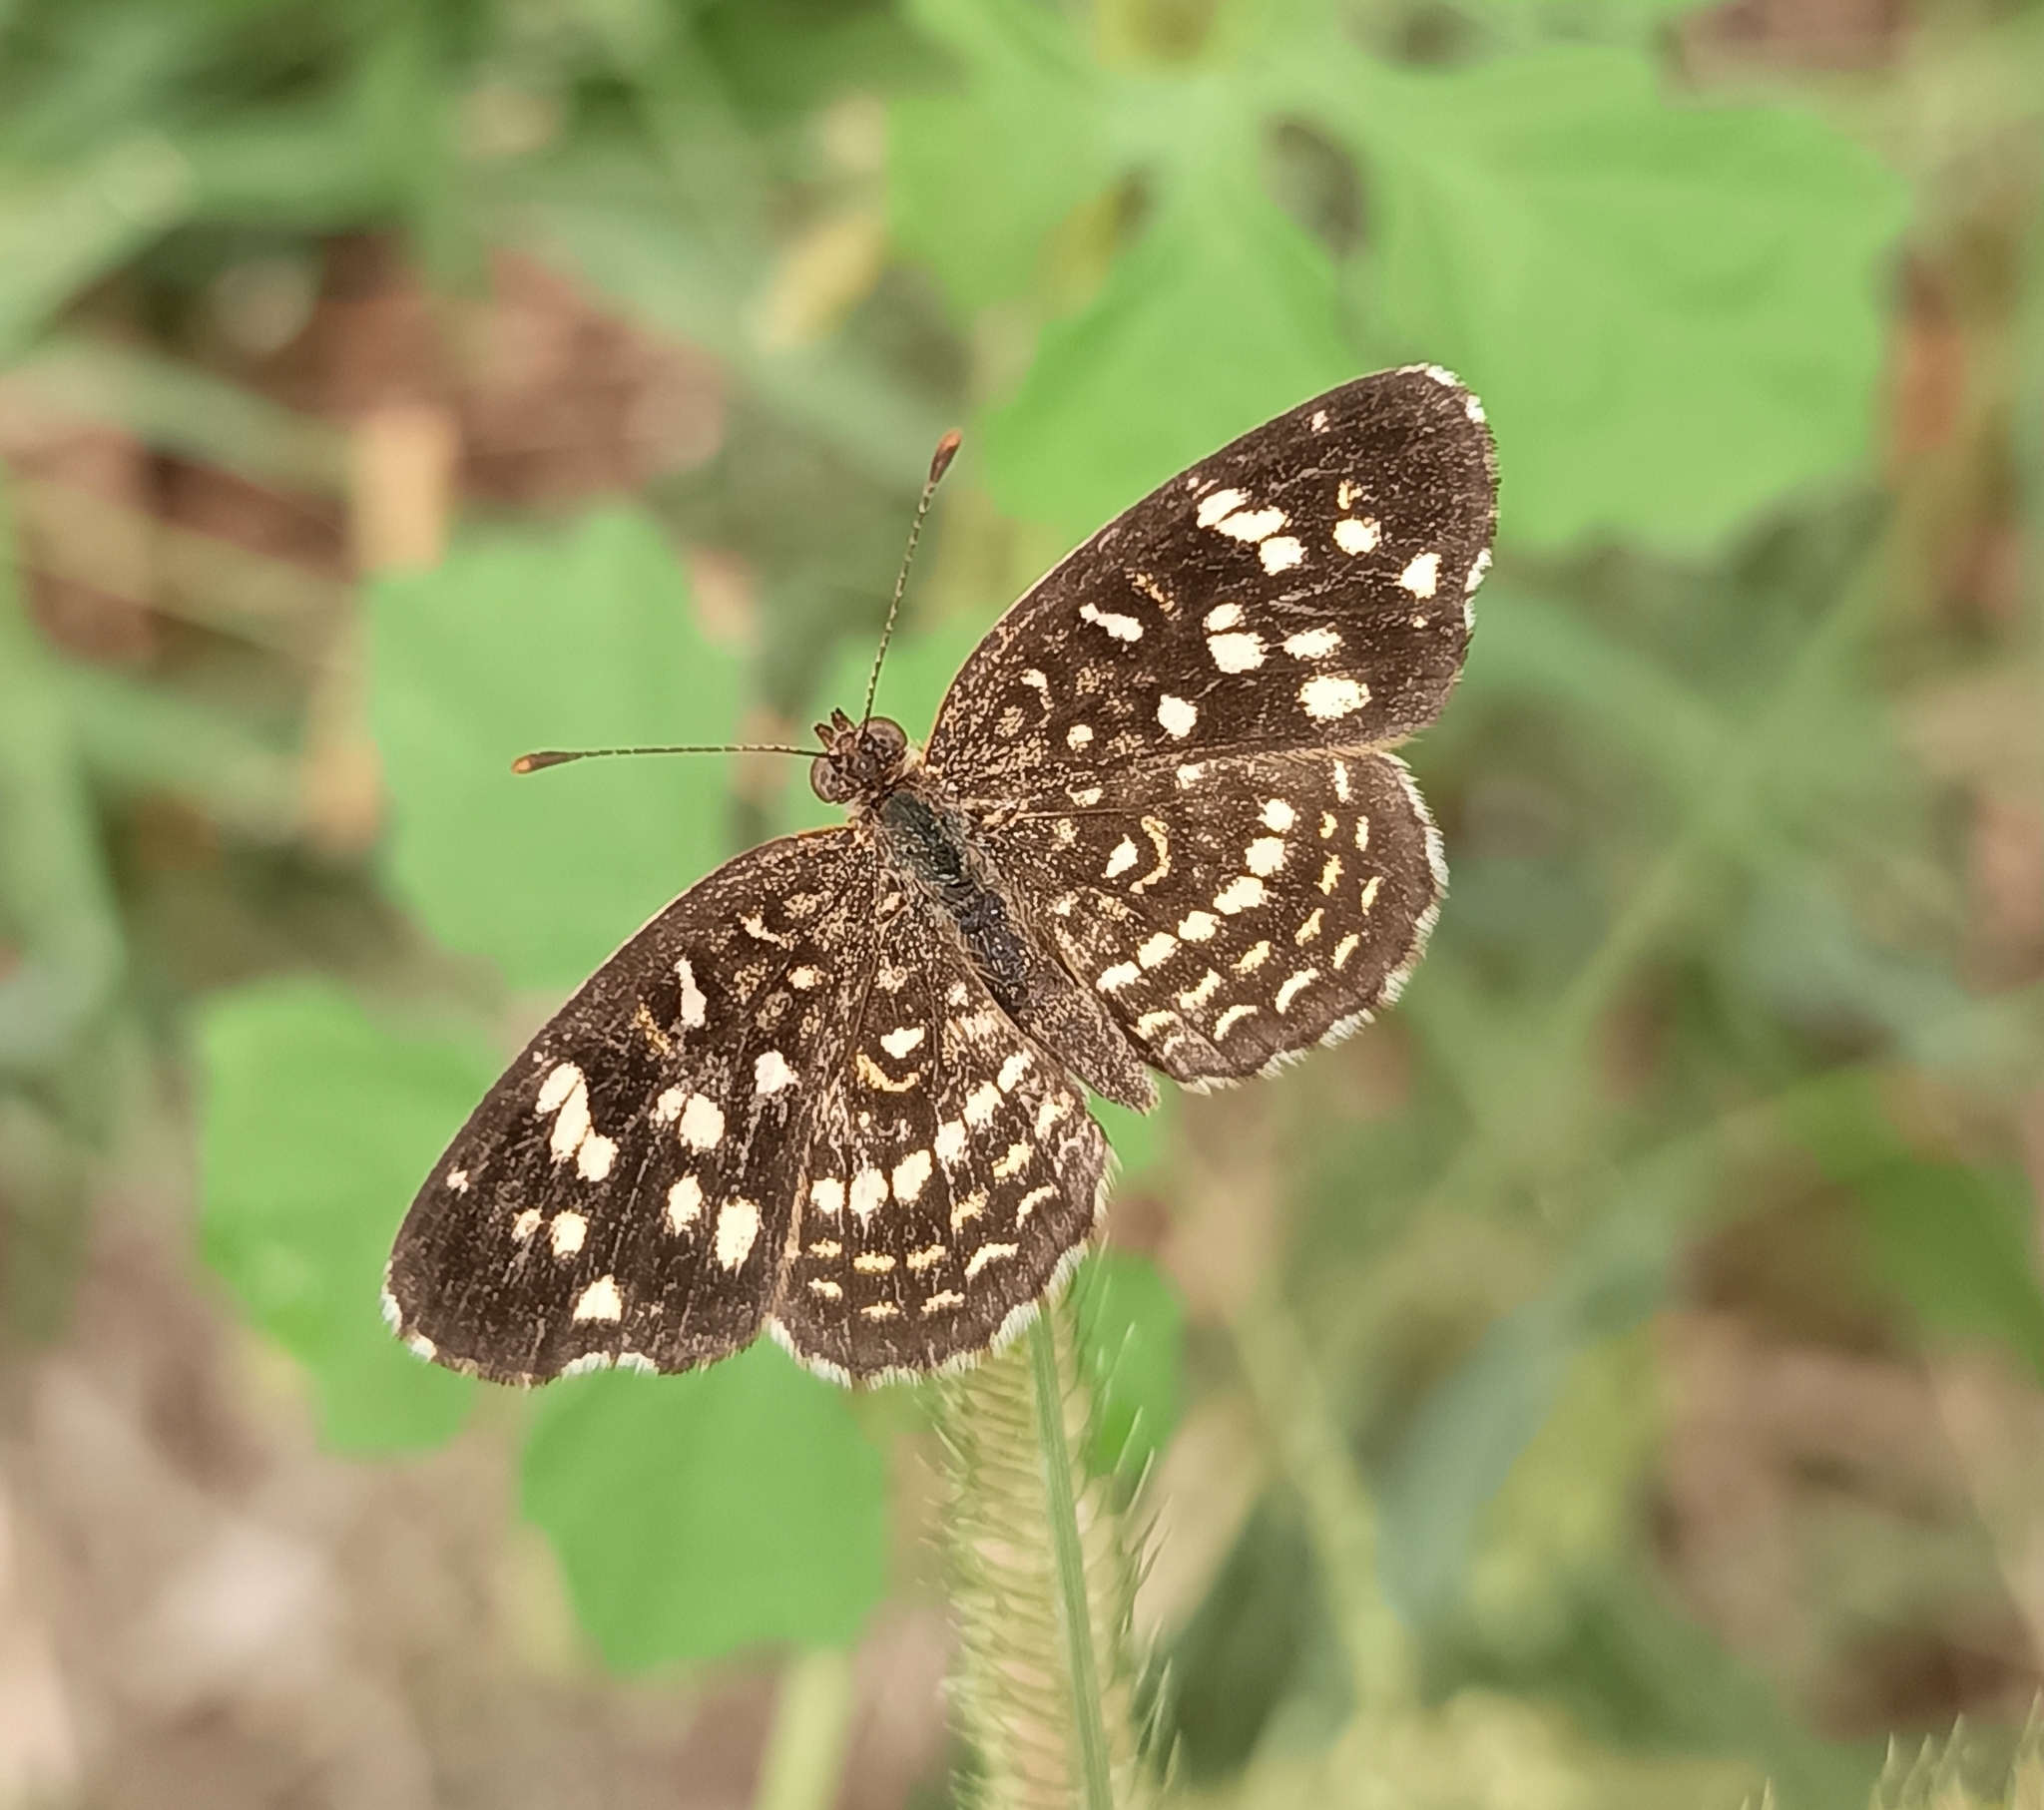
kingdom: Animalia
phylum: Arthropoda
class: Insecta
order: Lepidoptera
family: Nymphalidae
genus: Anthanassa
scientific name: Anthanassa hermas
